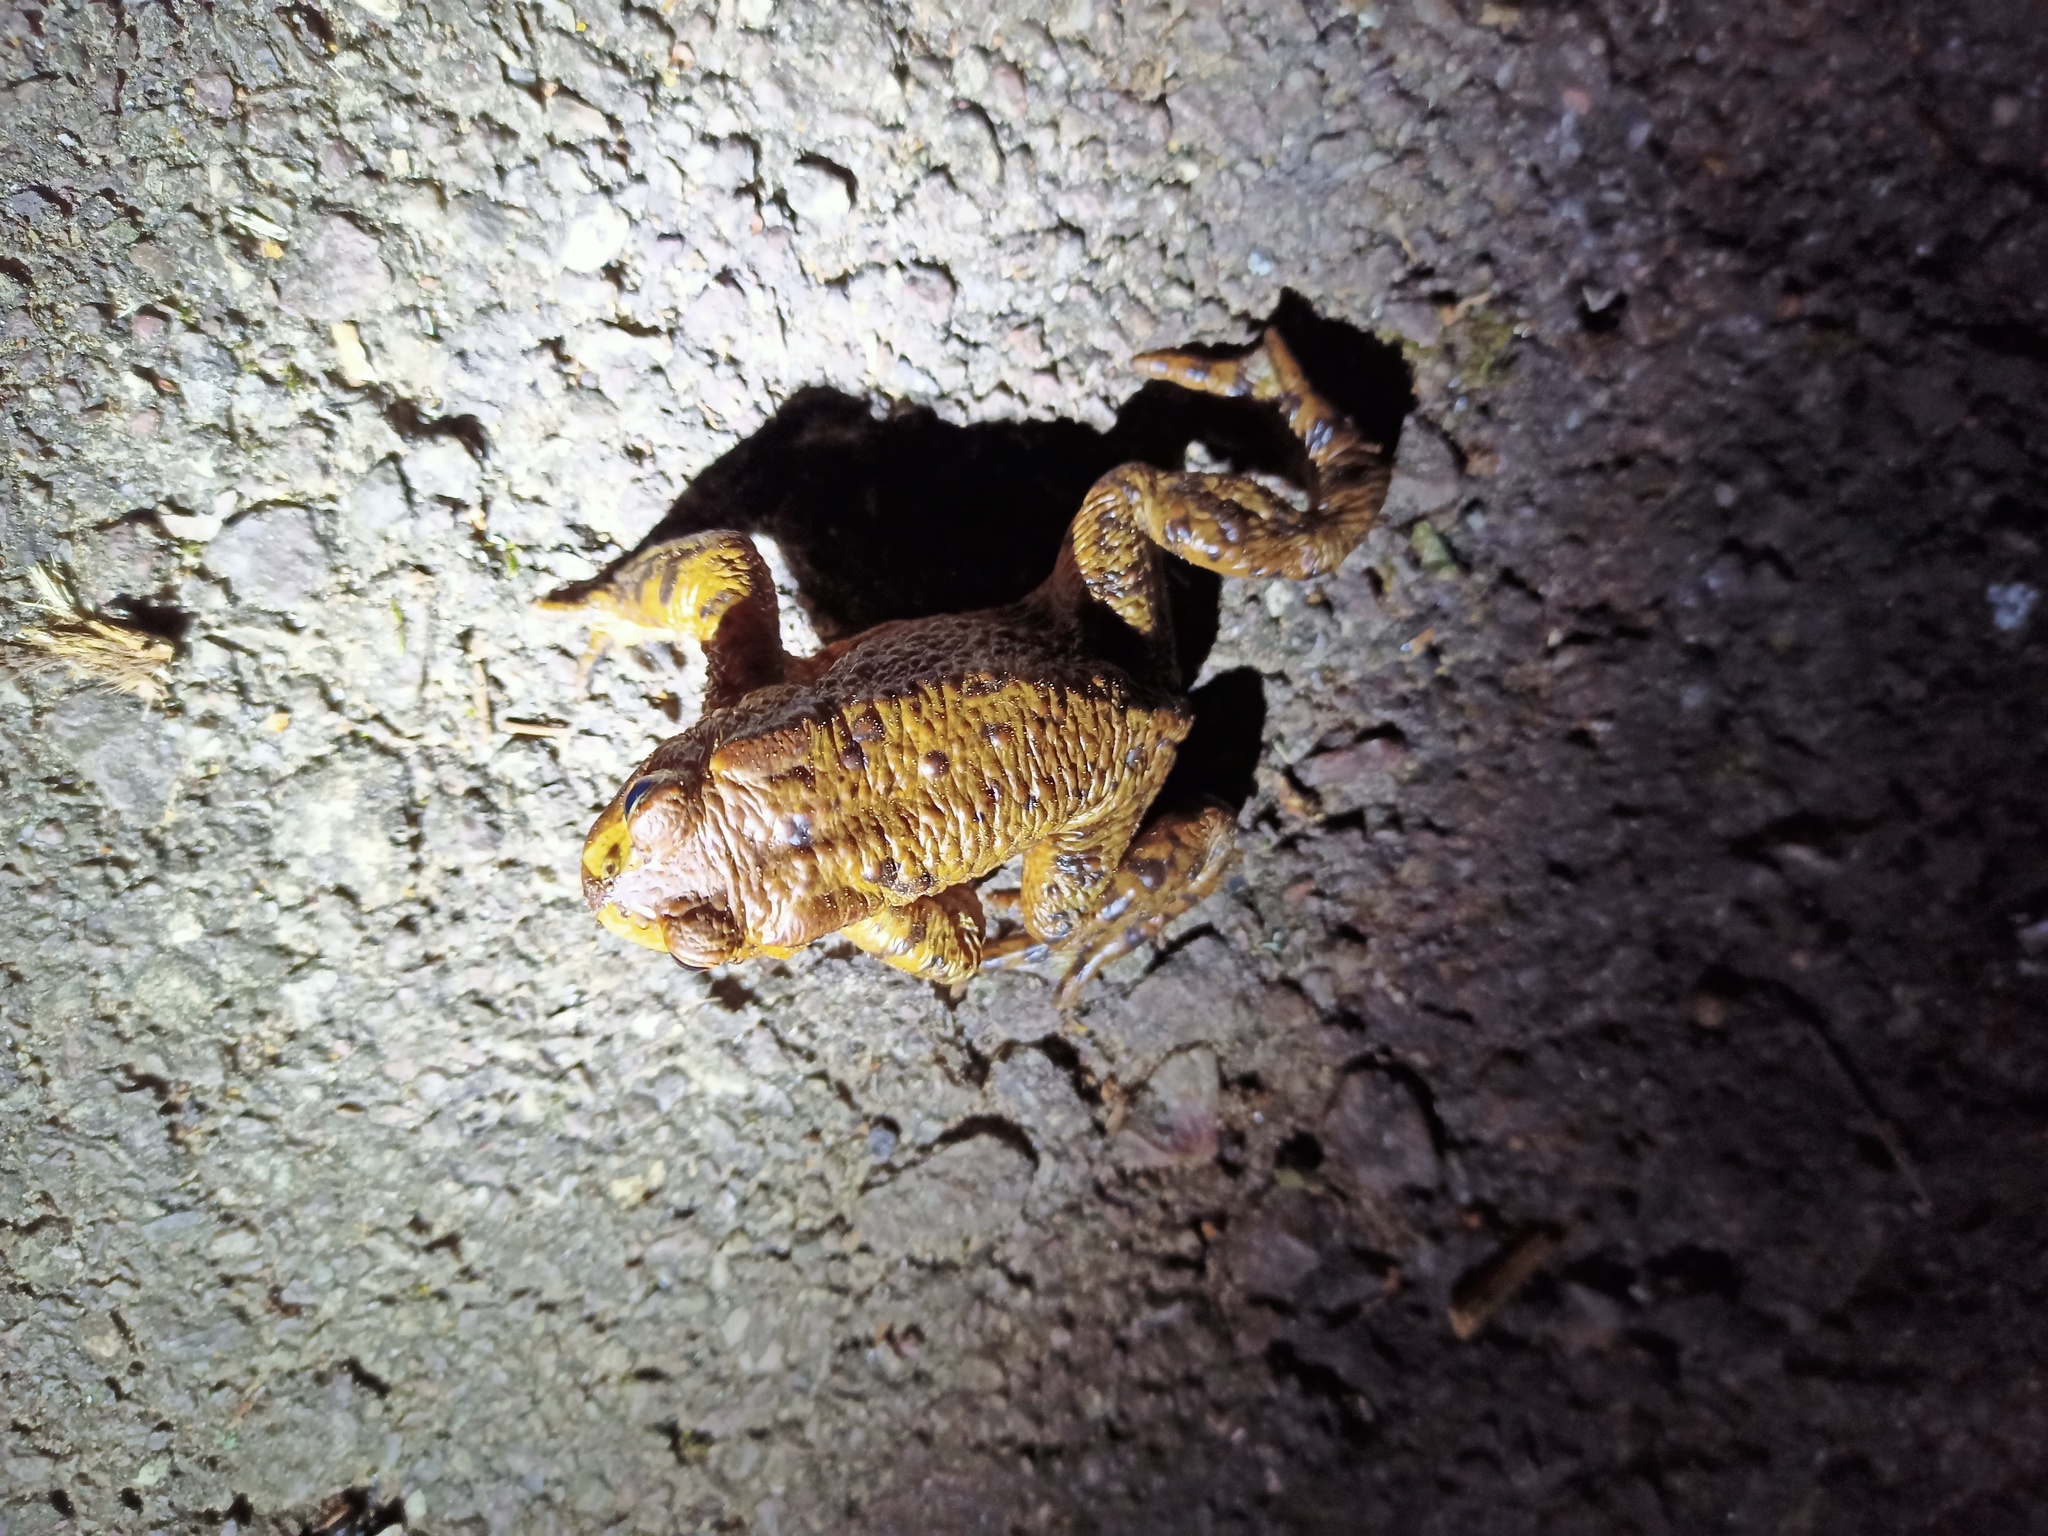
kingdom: Animalia
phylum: Chordata
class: Amphibia
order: Anura
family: Bufonidae
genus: Bufo
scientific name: Bufo bufo
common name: Common toad
